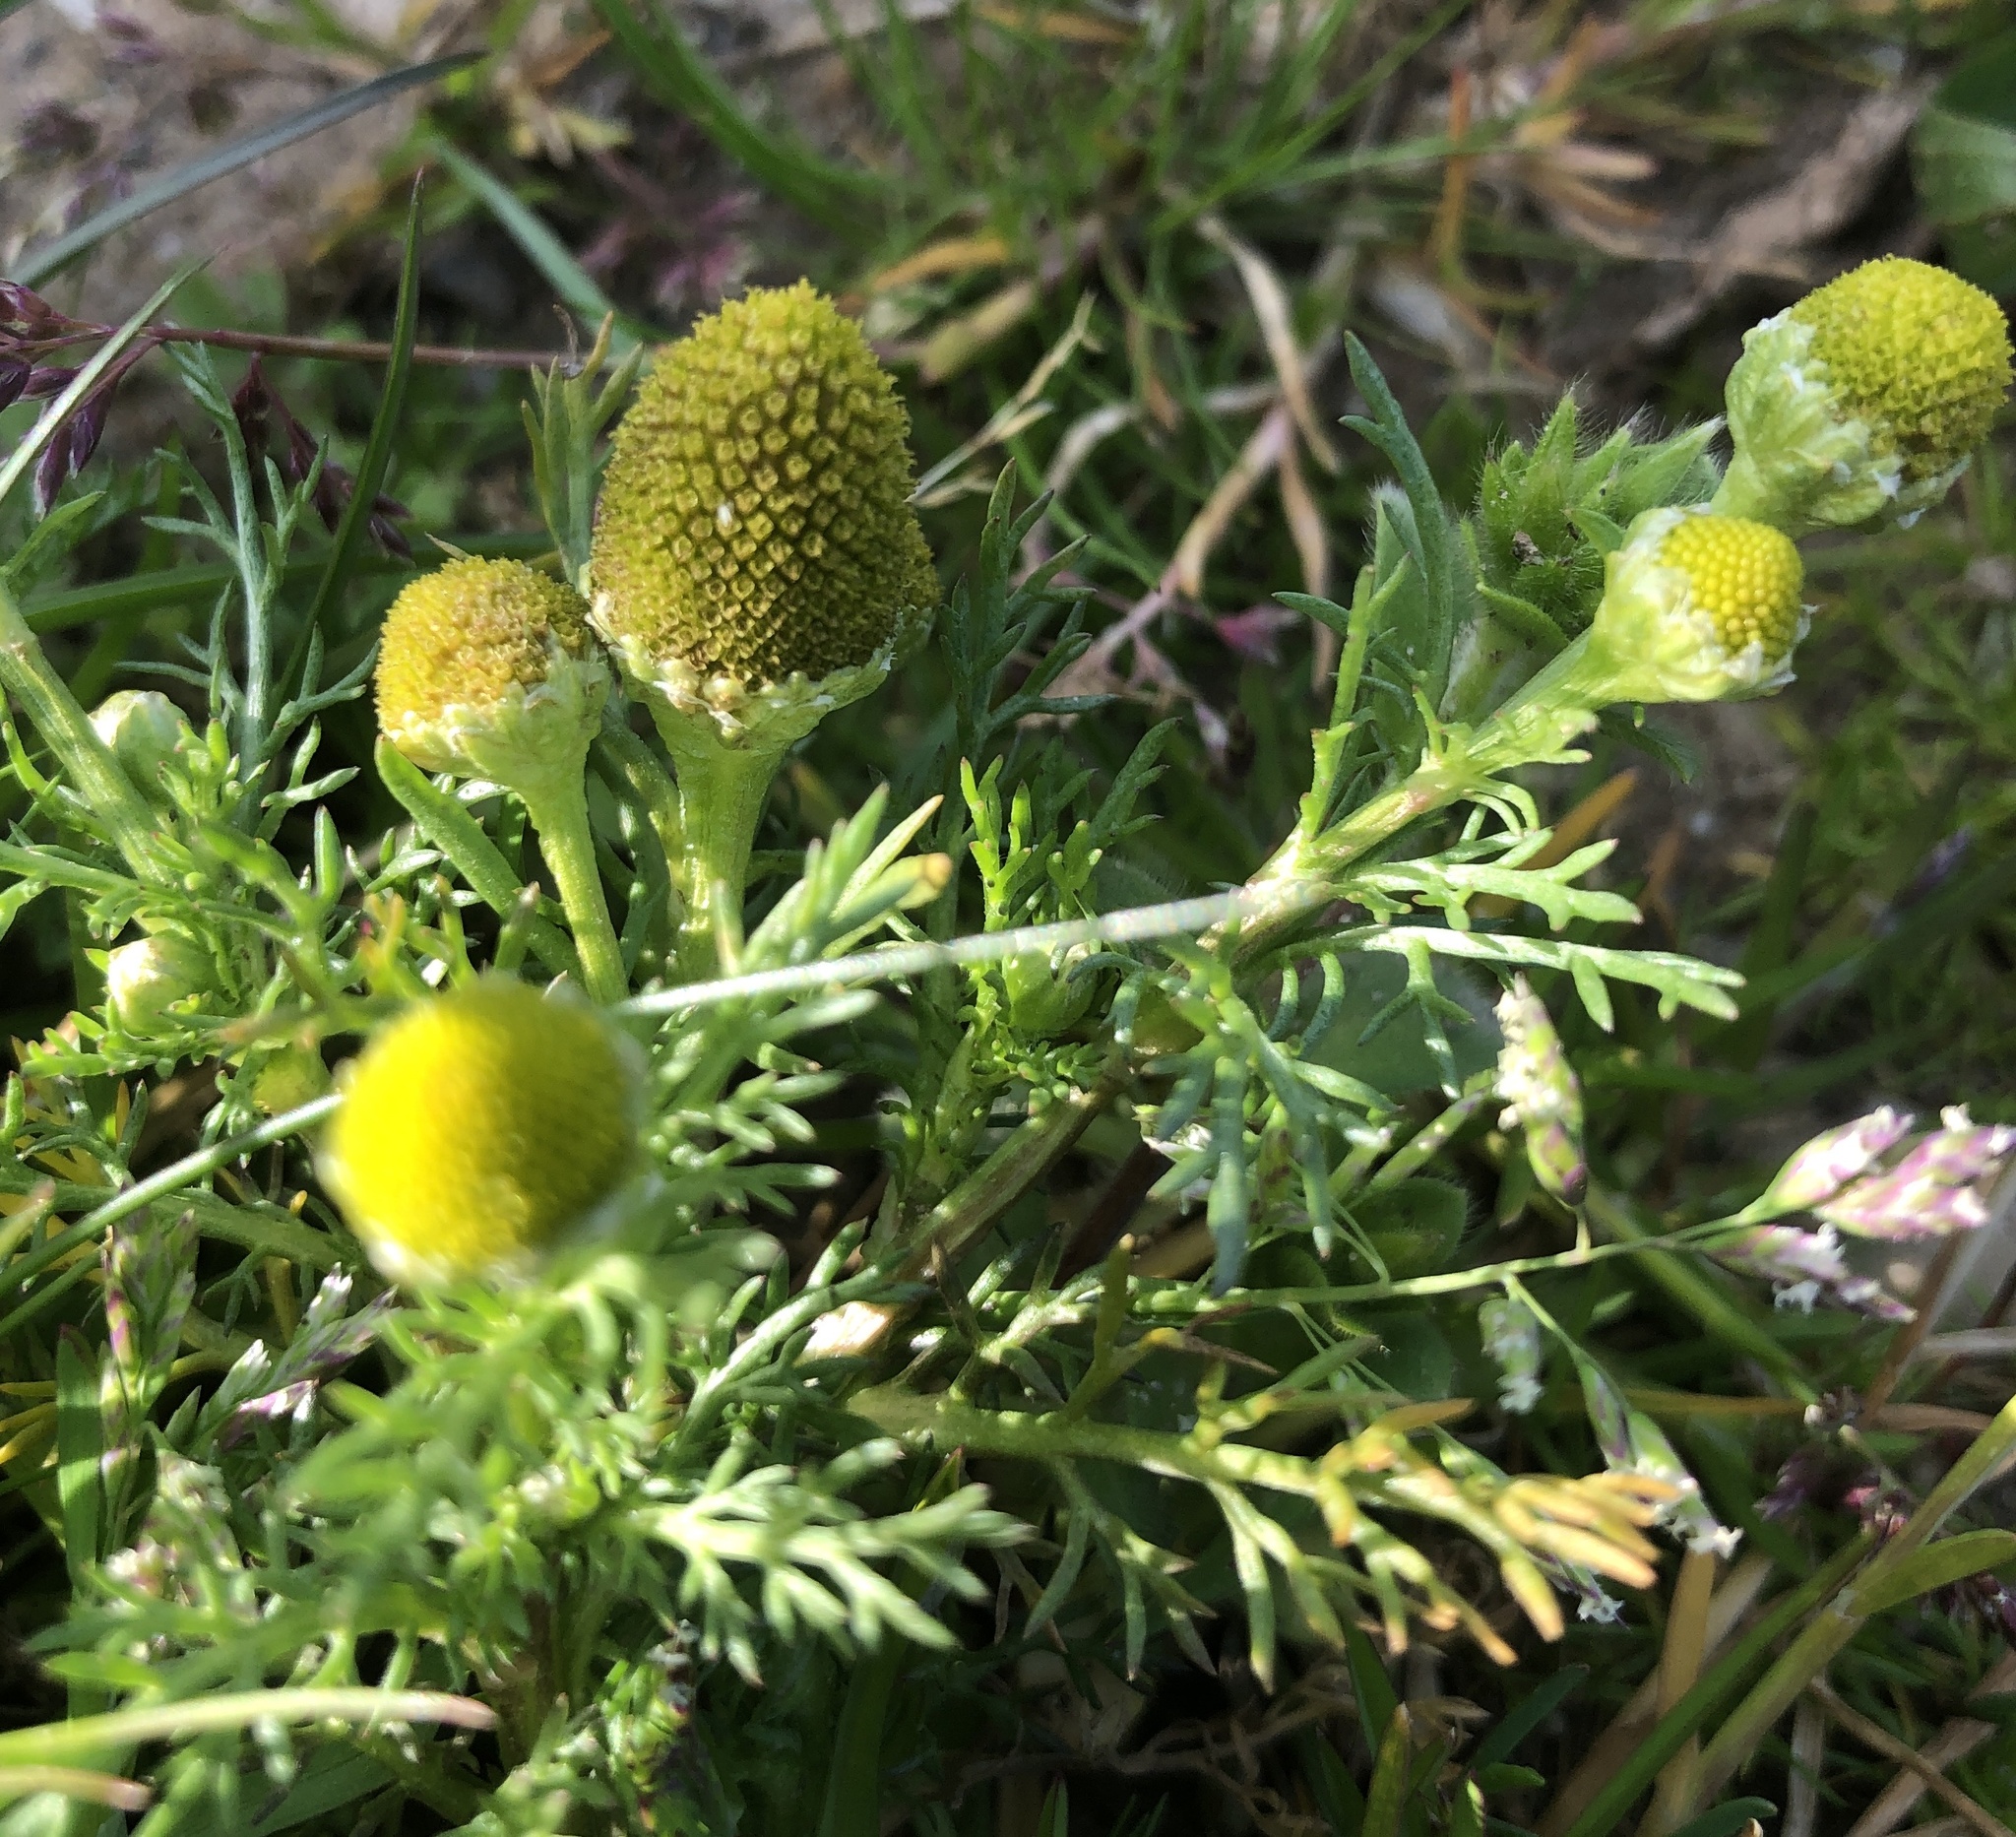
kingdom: Plantae
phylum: Tracheophyta
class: Magnoliopsida
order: Asterales
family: Asteraceae
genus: Matricaria
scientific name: Matricaria discoidea
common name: Disc mayweed
